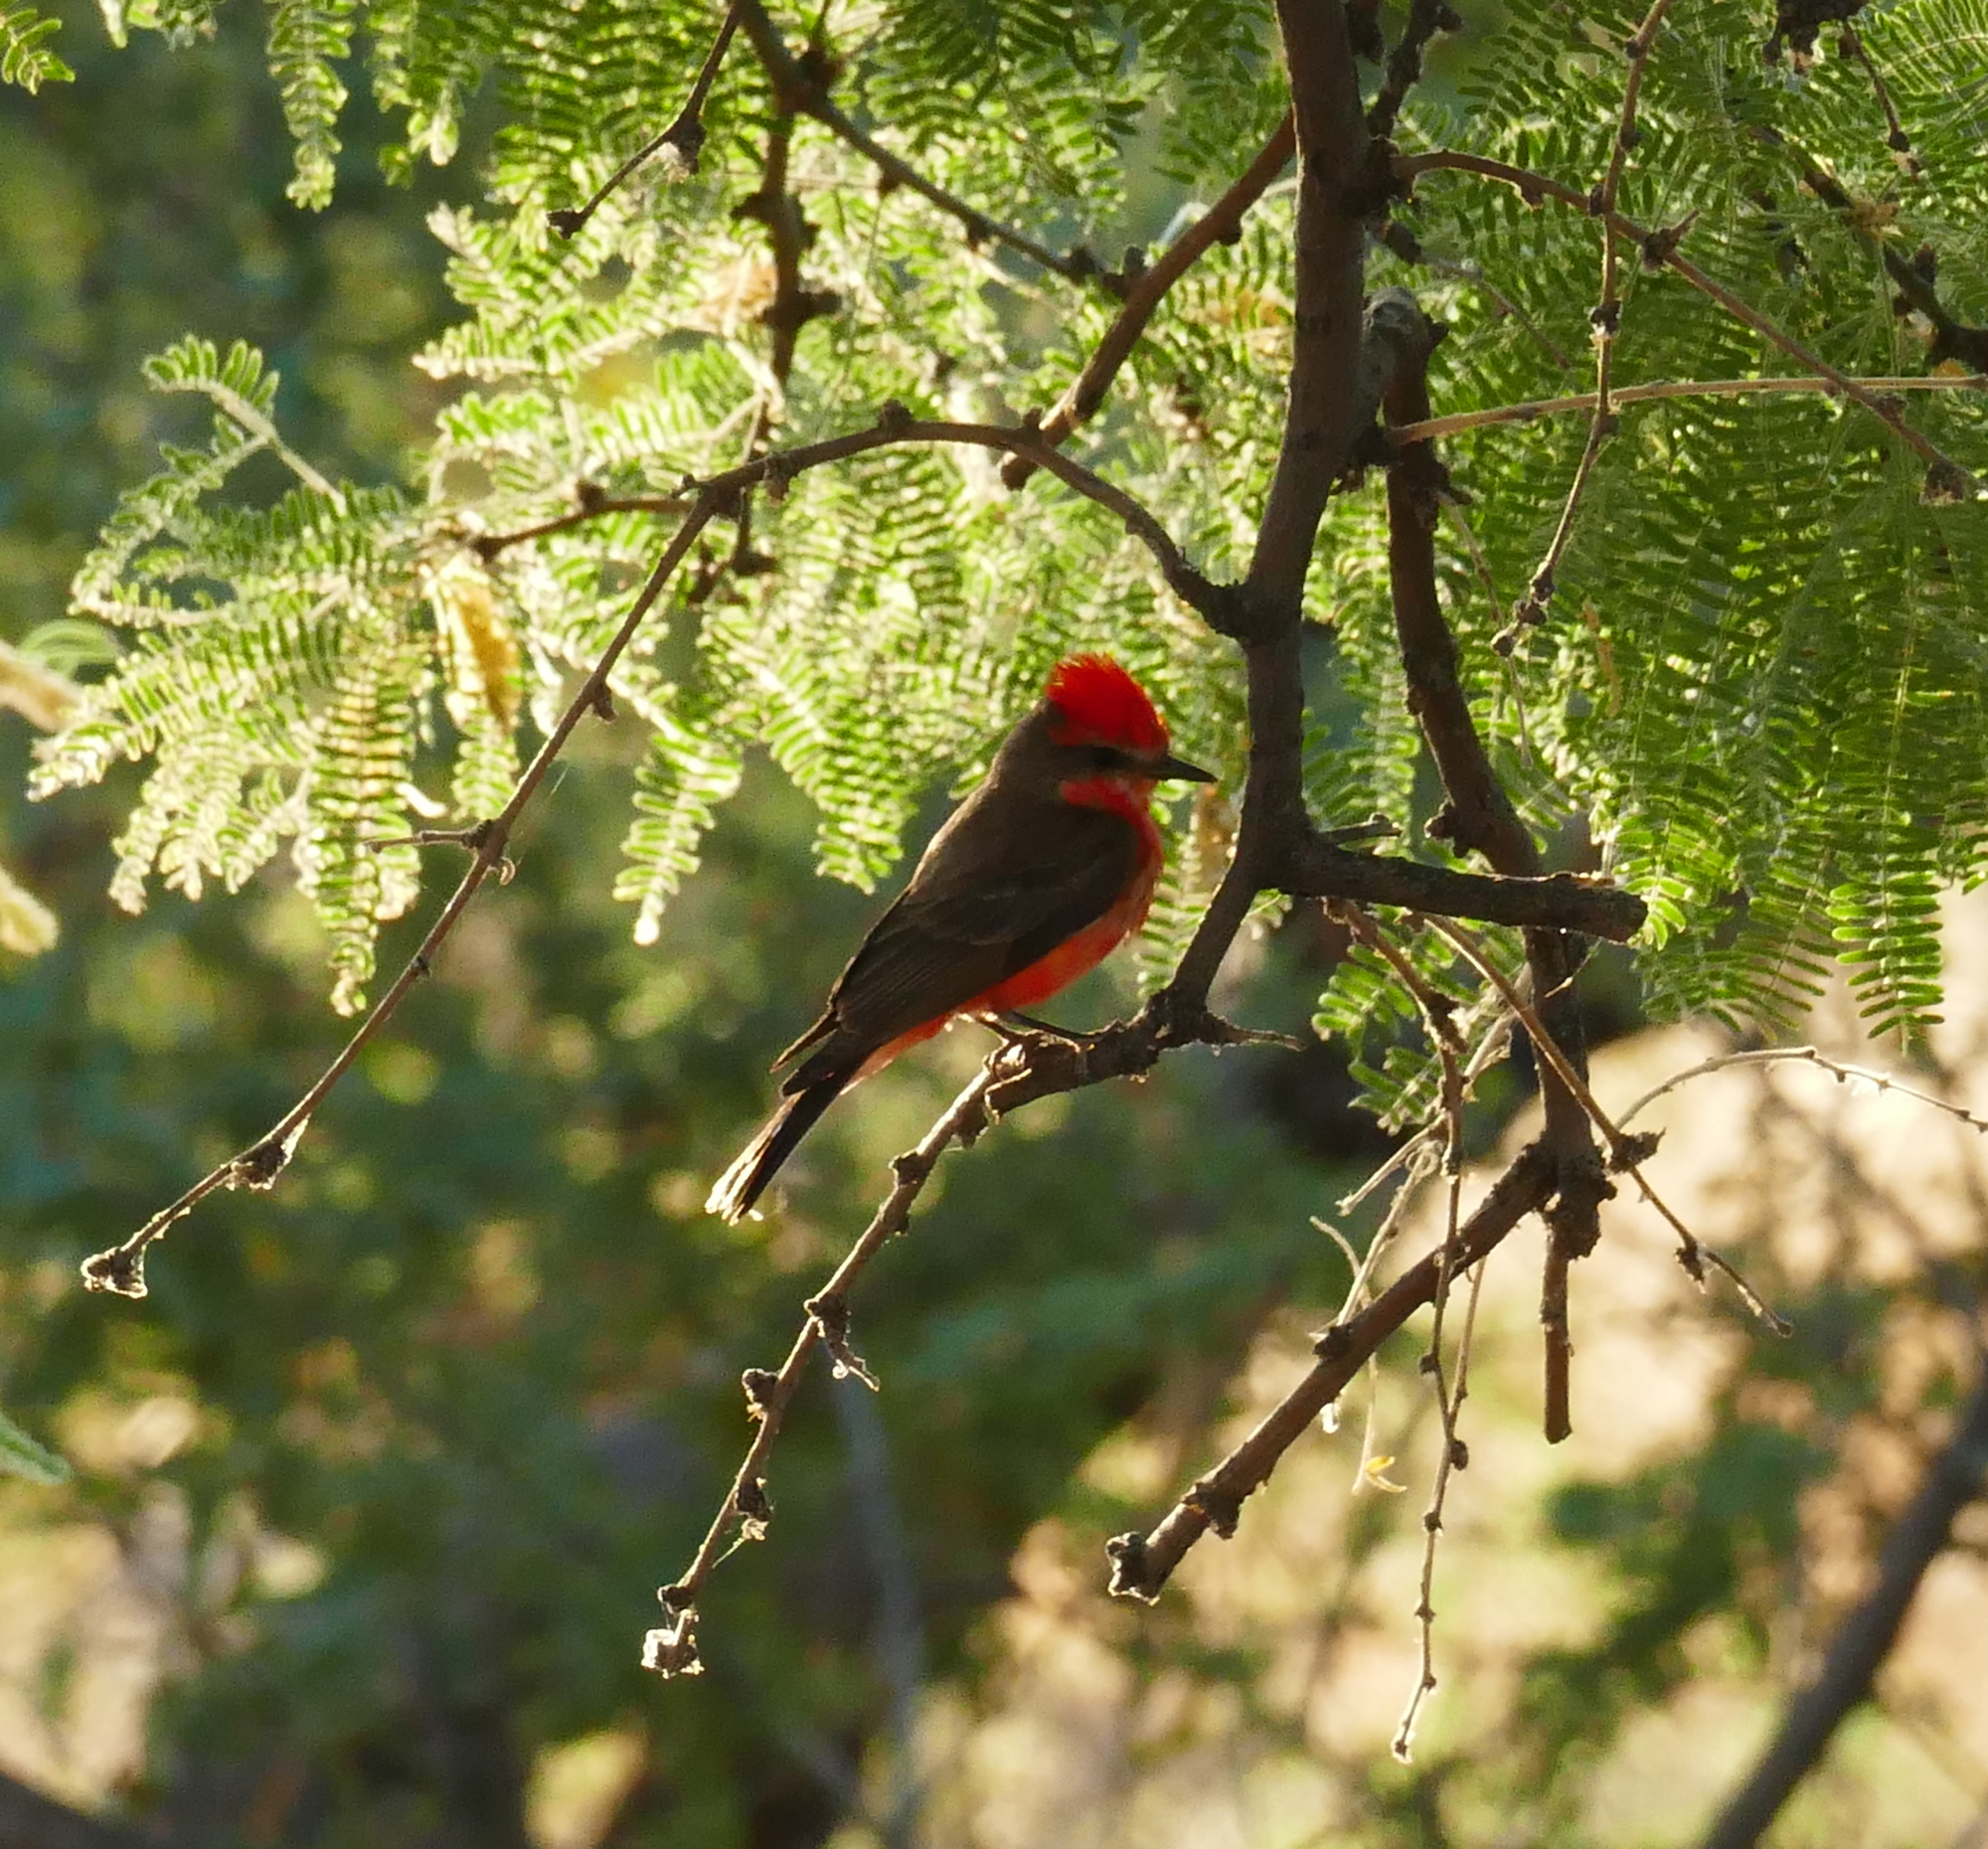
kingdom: Animalia
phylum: Chordata
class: Aves
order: Passeriformes
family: Tyrannidae
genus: Pyrocephalus
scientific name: Pyrocephalus rubinus
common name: Vermilion flycatcher
